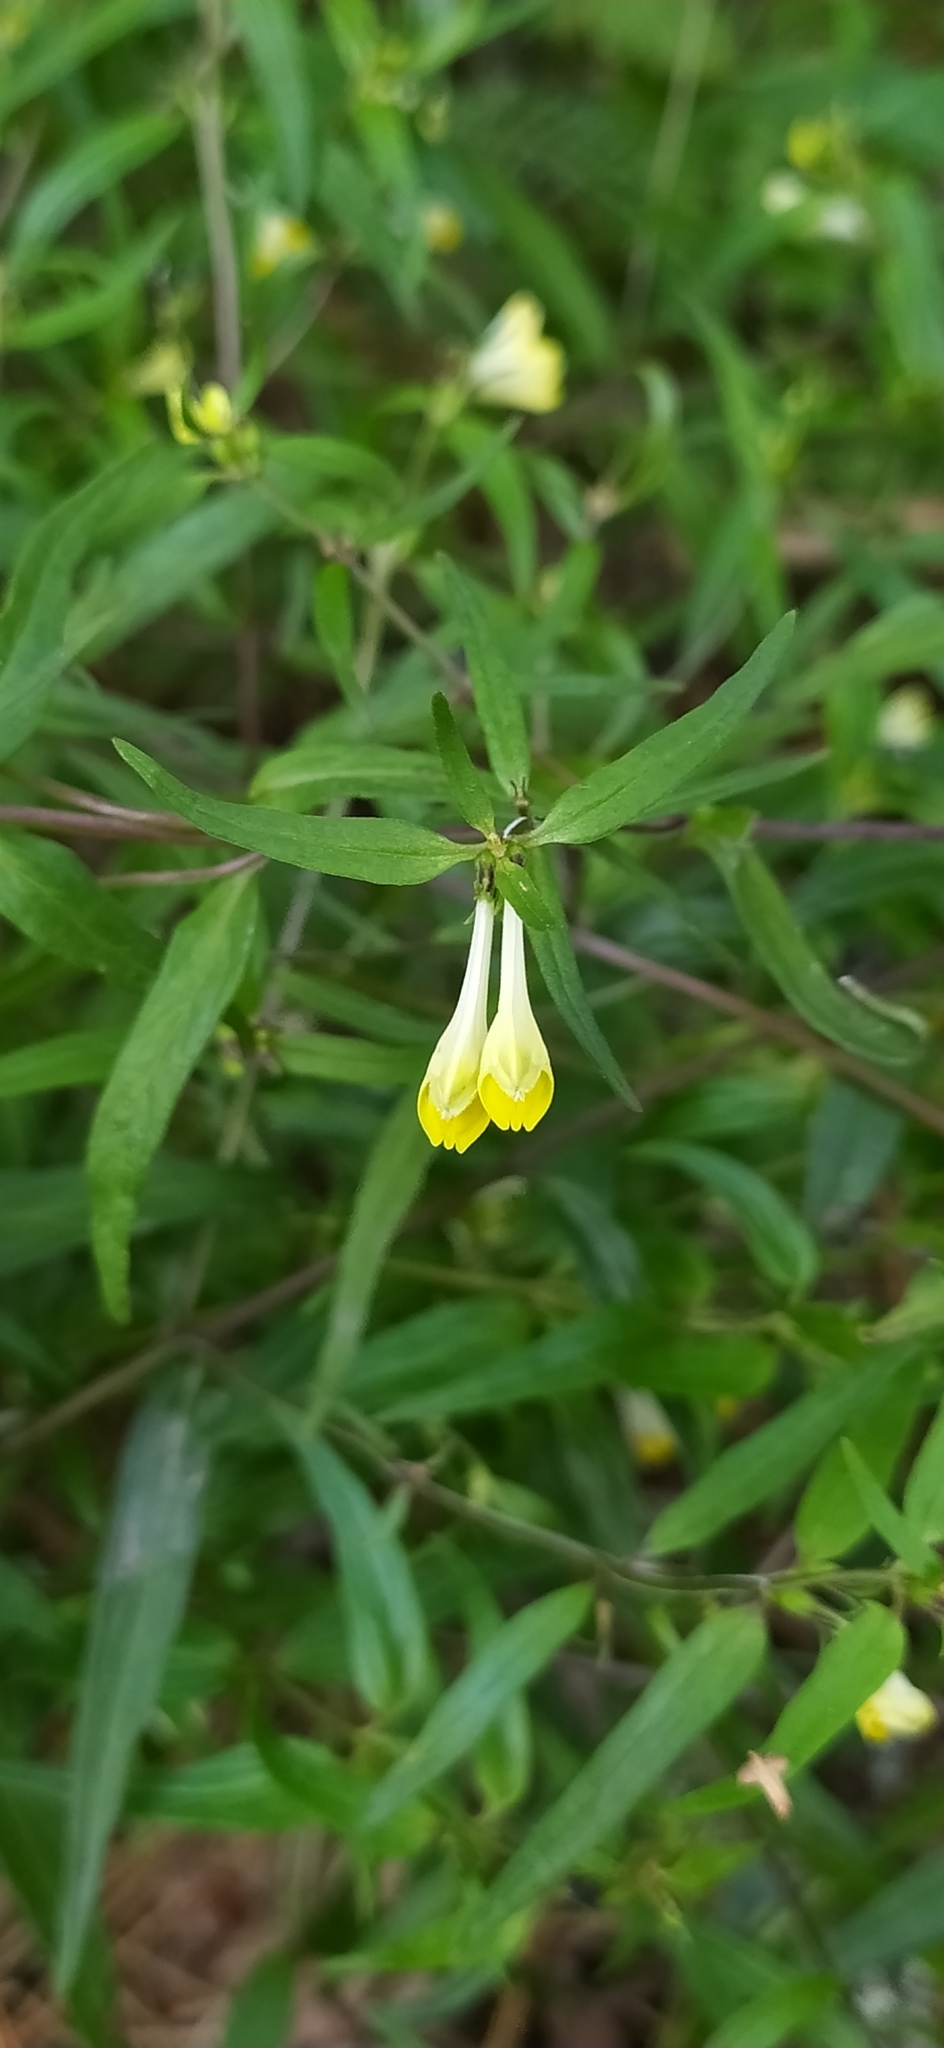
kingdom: Plantae
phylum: Tracheophyta
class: Magnoliopsida
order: Lamiales
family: Orobanchaceae
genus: Melampyrum
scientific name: Melampyrum pratense
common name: Common cow-wheat
